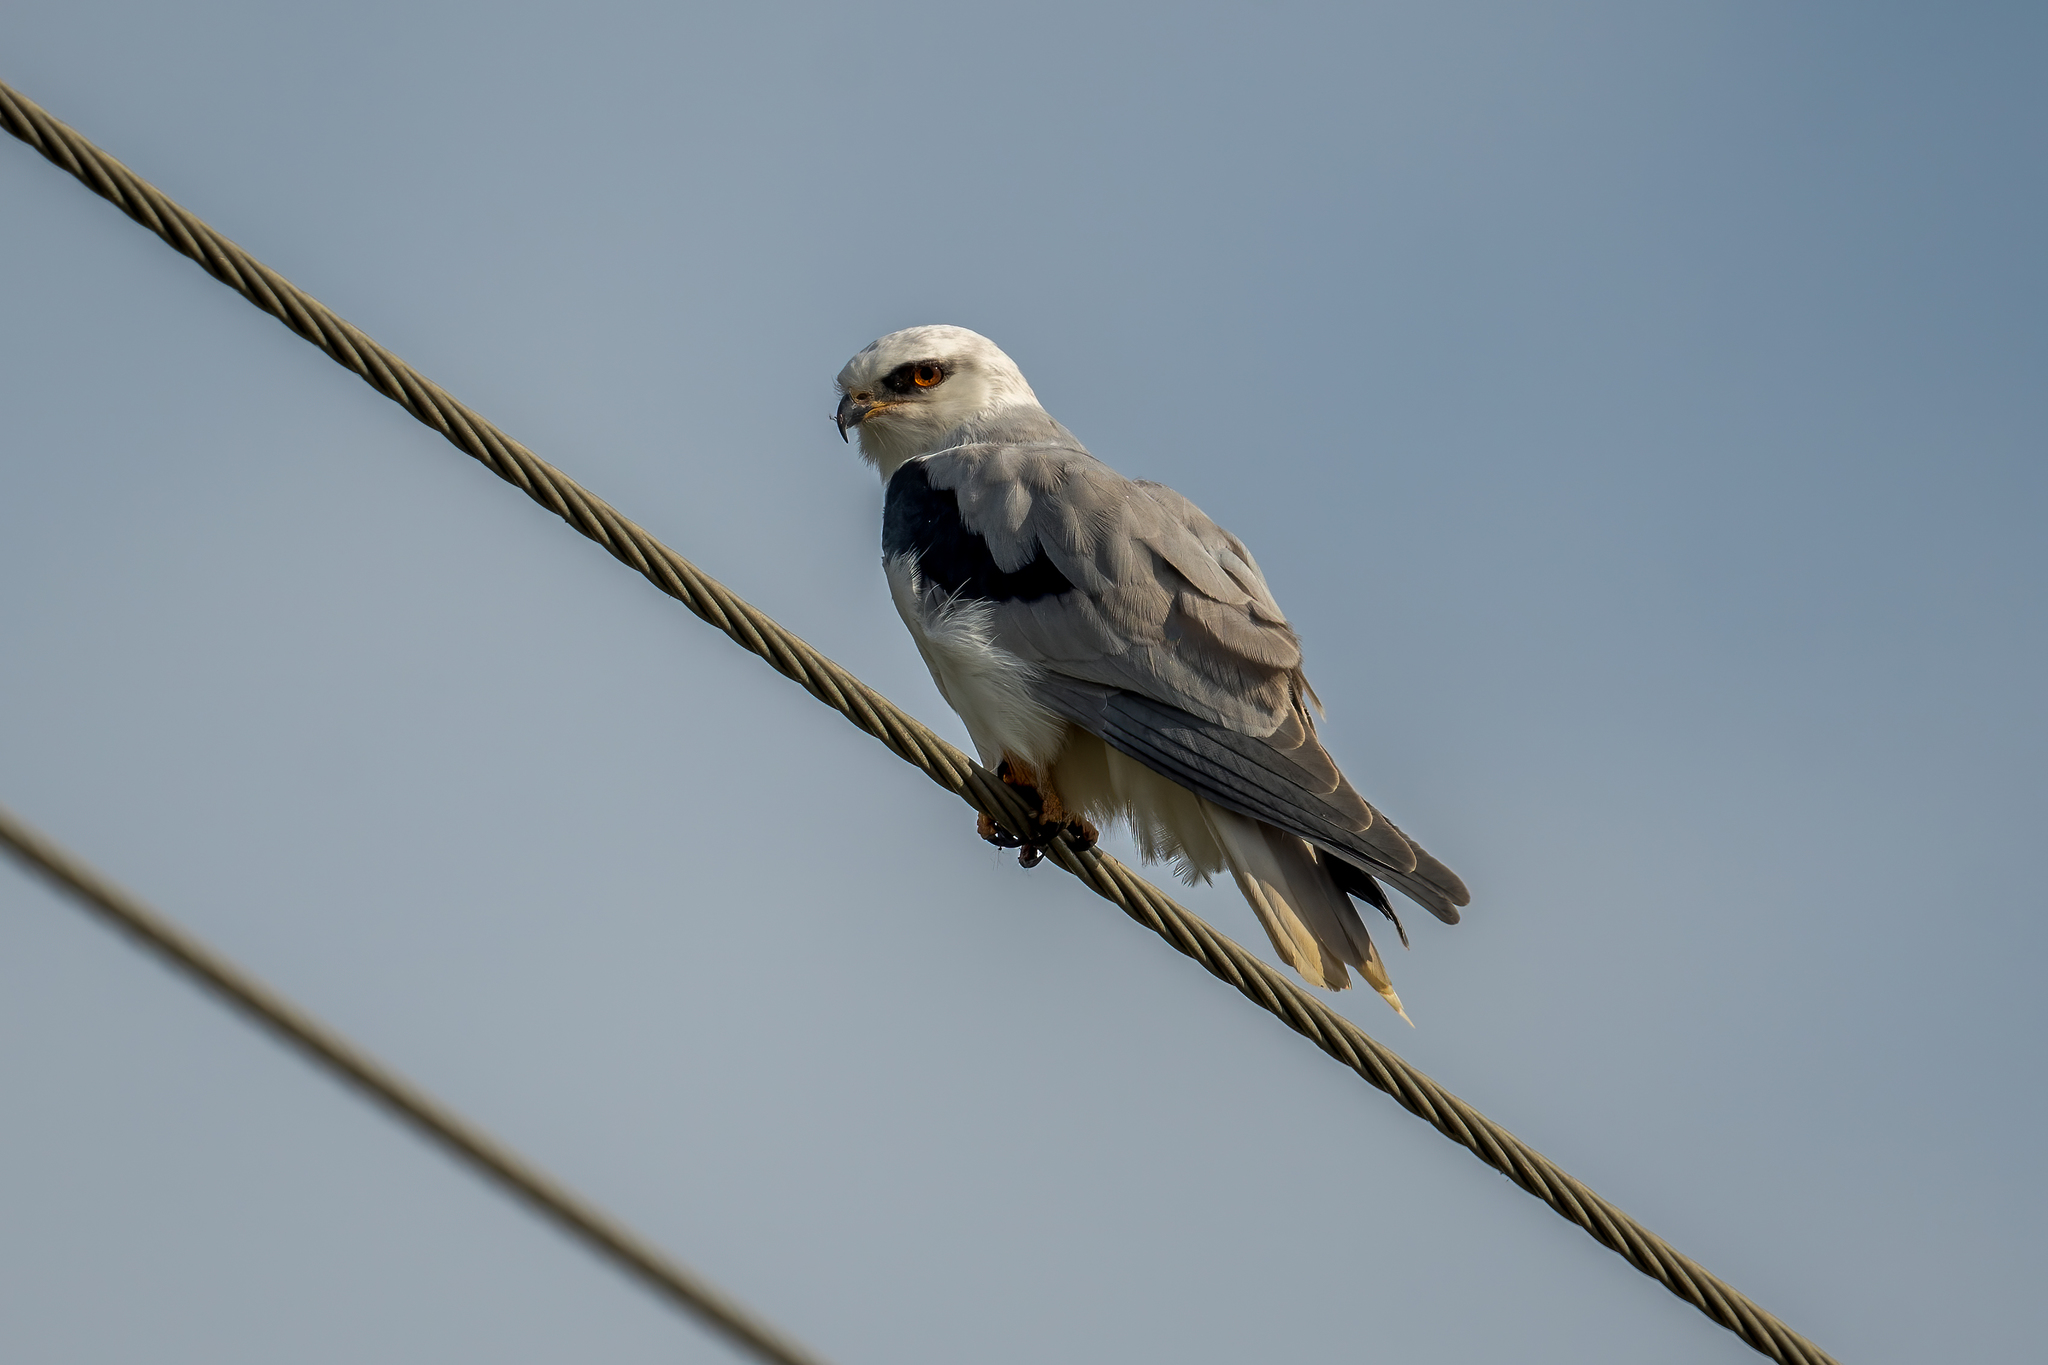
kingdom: Animalia
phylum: Chordata
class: Aves
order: Accipitriformes
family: Accipitridae
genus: Elanus
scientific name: Elanus leucurus
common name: White-tailed kite
